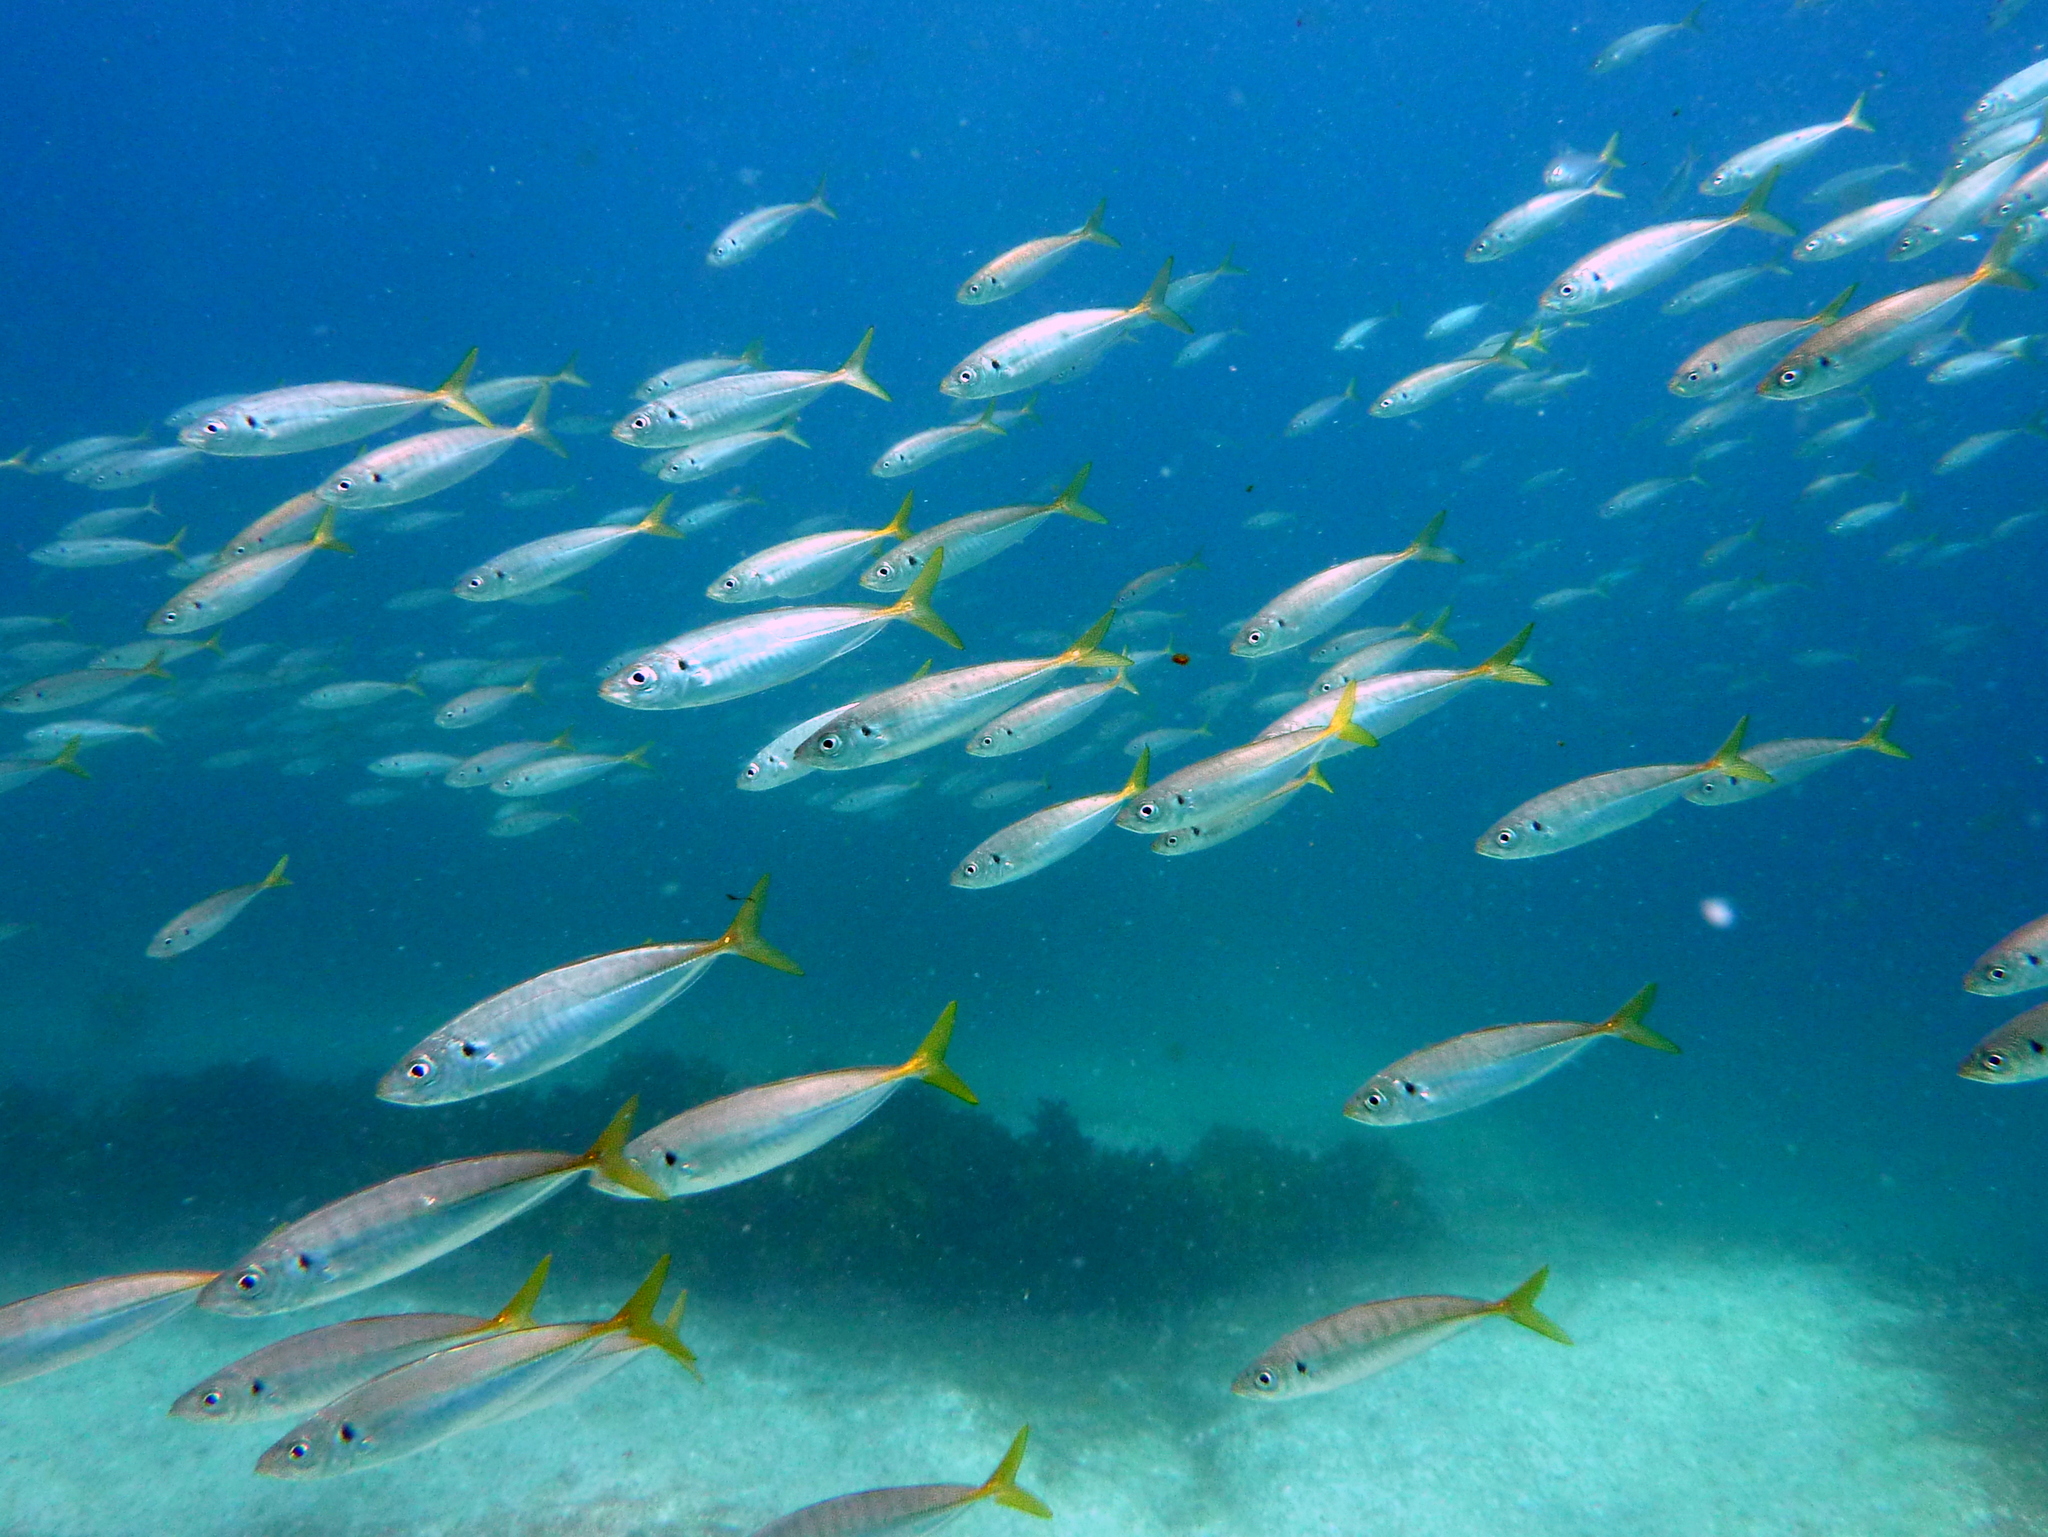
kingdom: Animalia
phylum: Chordata
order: Perciformes
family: Carangidae
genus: Trachurus
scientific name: Trachurus novaezelandiae
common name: Yellowtail horse mackerel
